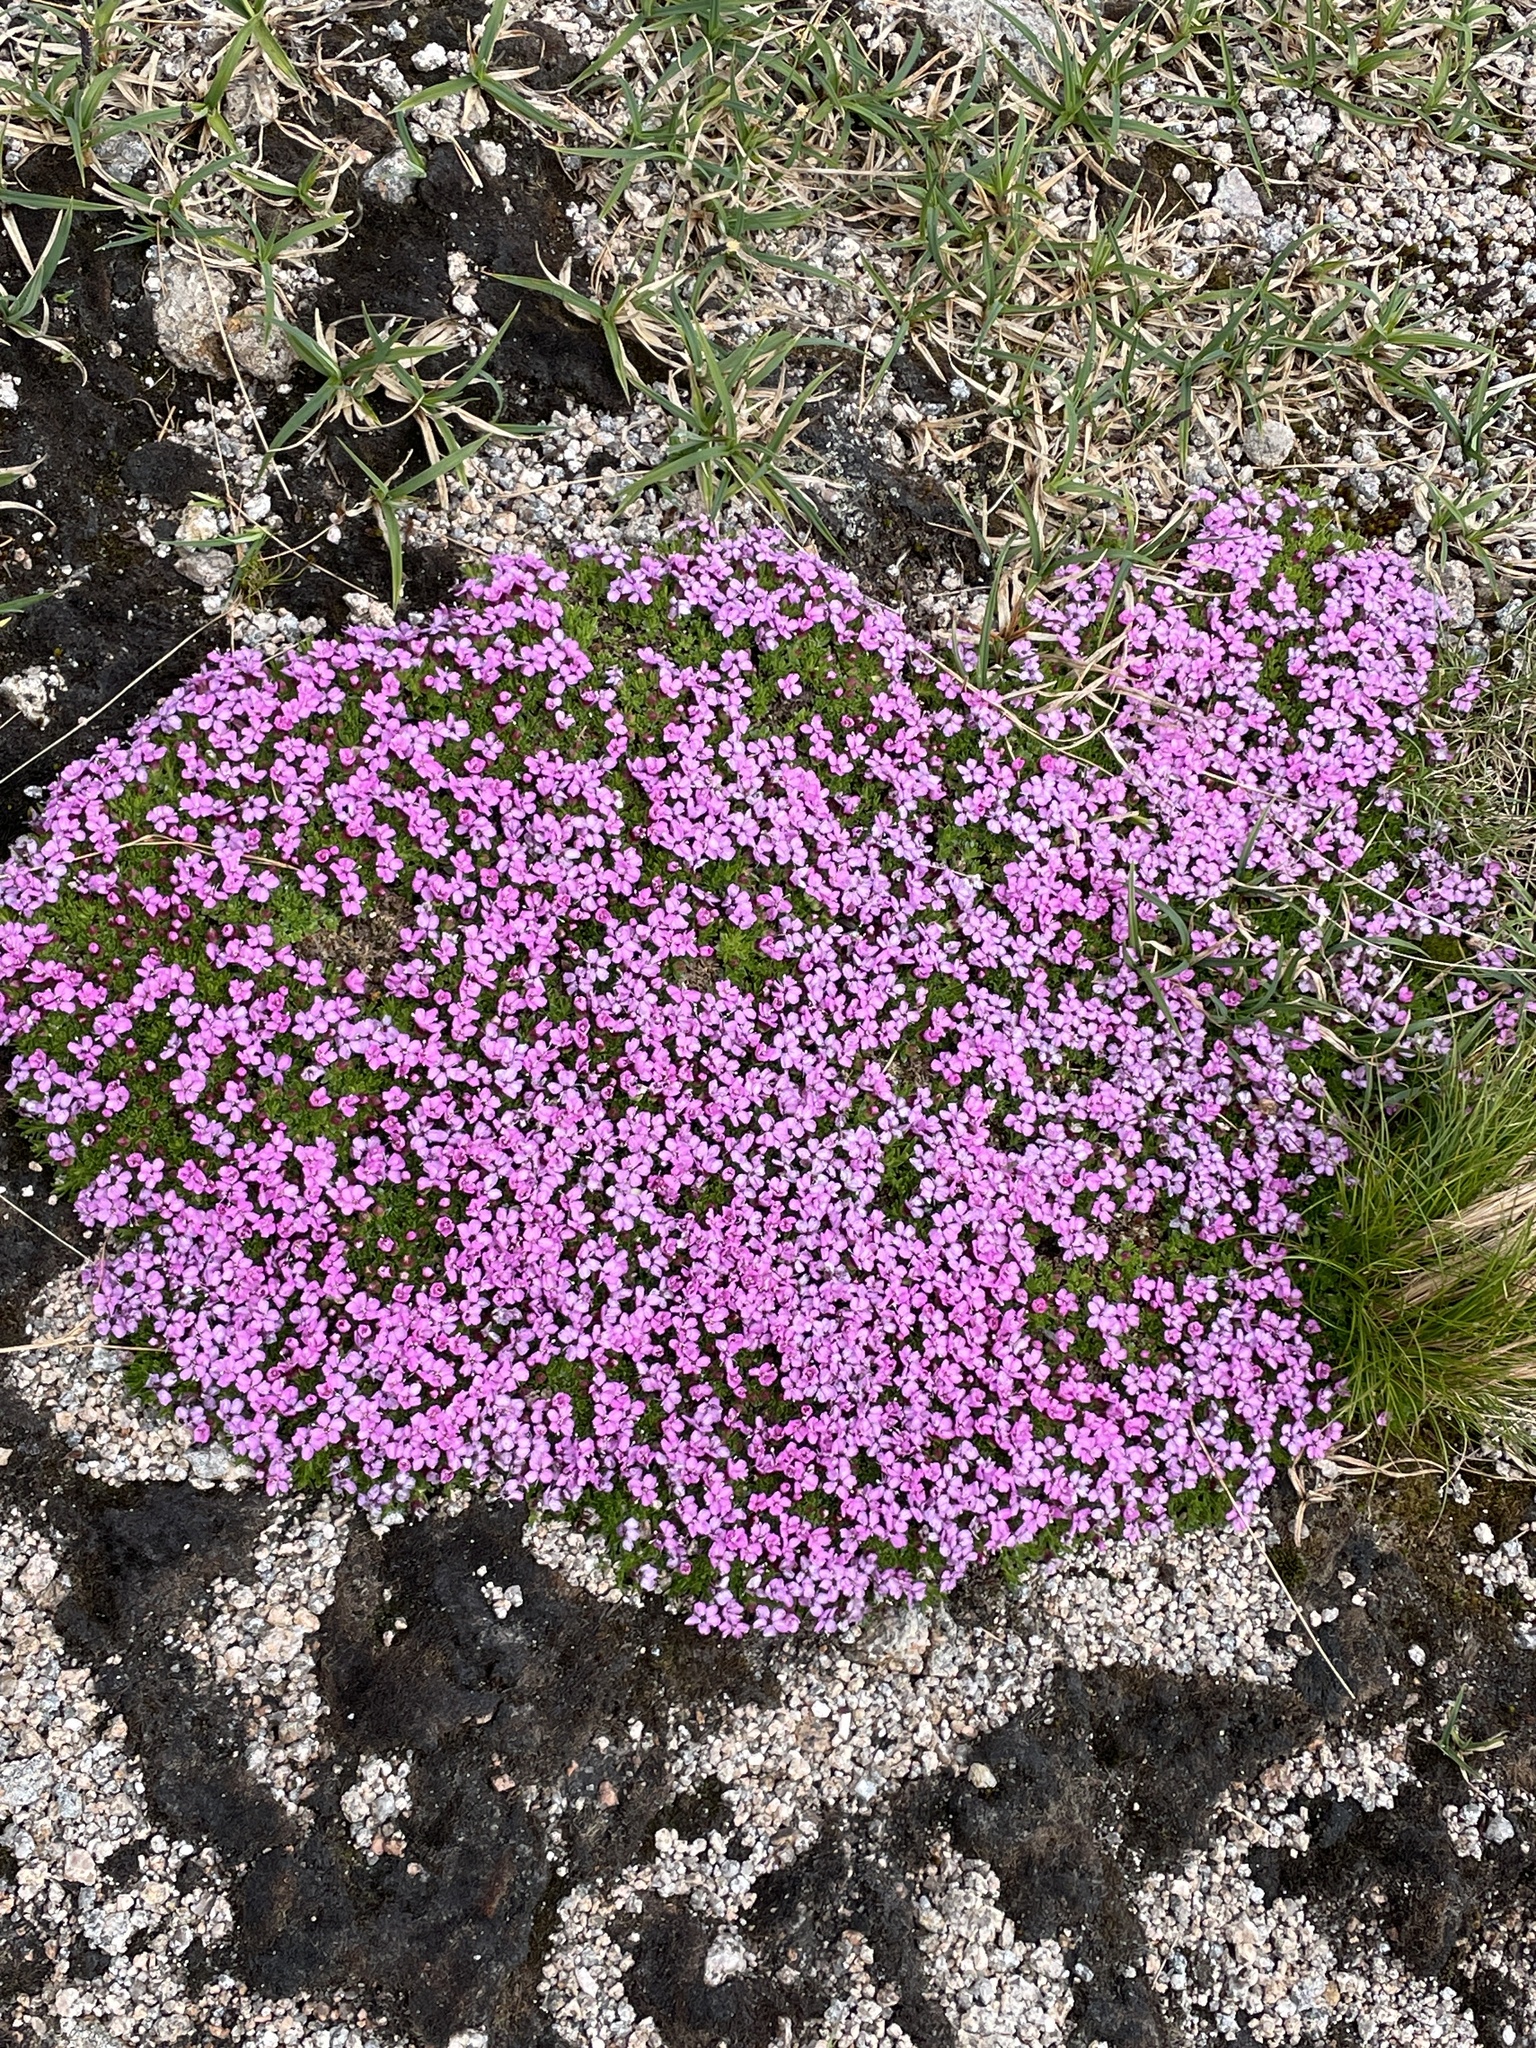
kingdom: Plantae
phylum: Tracheophyta
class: Magnoliopsida
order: Caryophyllales
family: Caryophyllaceae
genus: Silene
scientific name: Silene acaulis
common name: Moss campion
